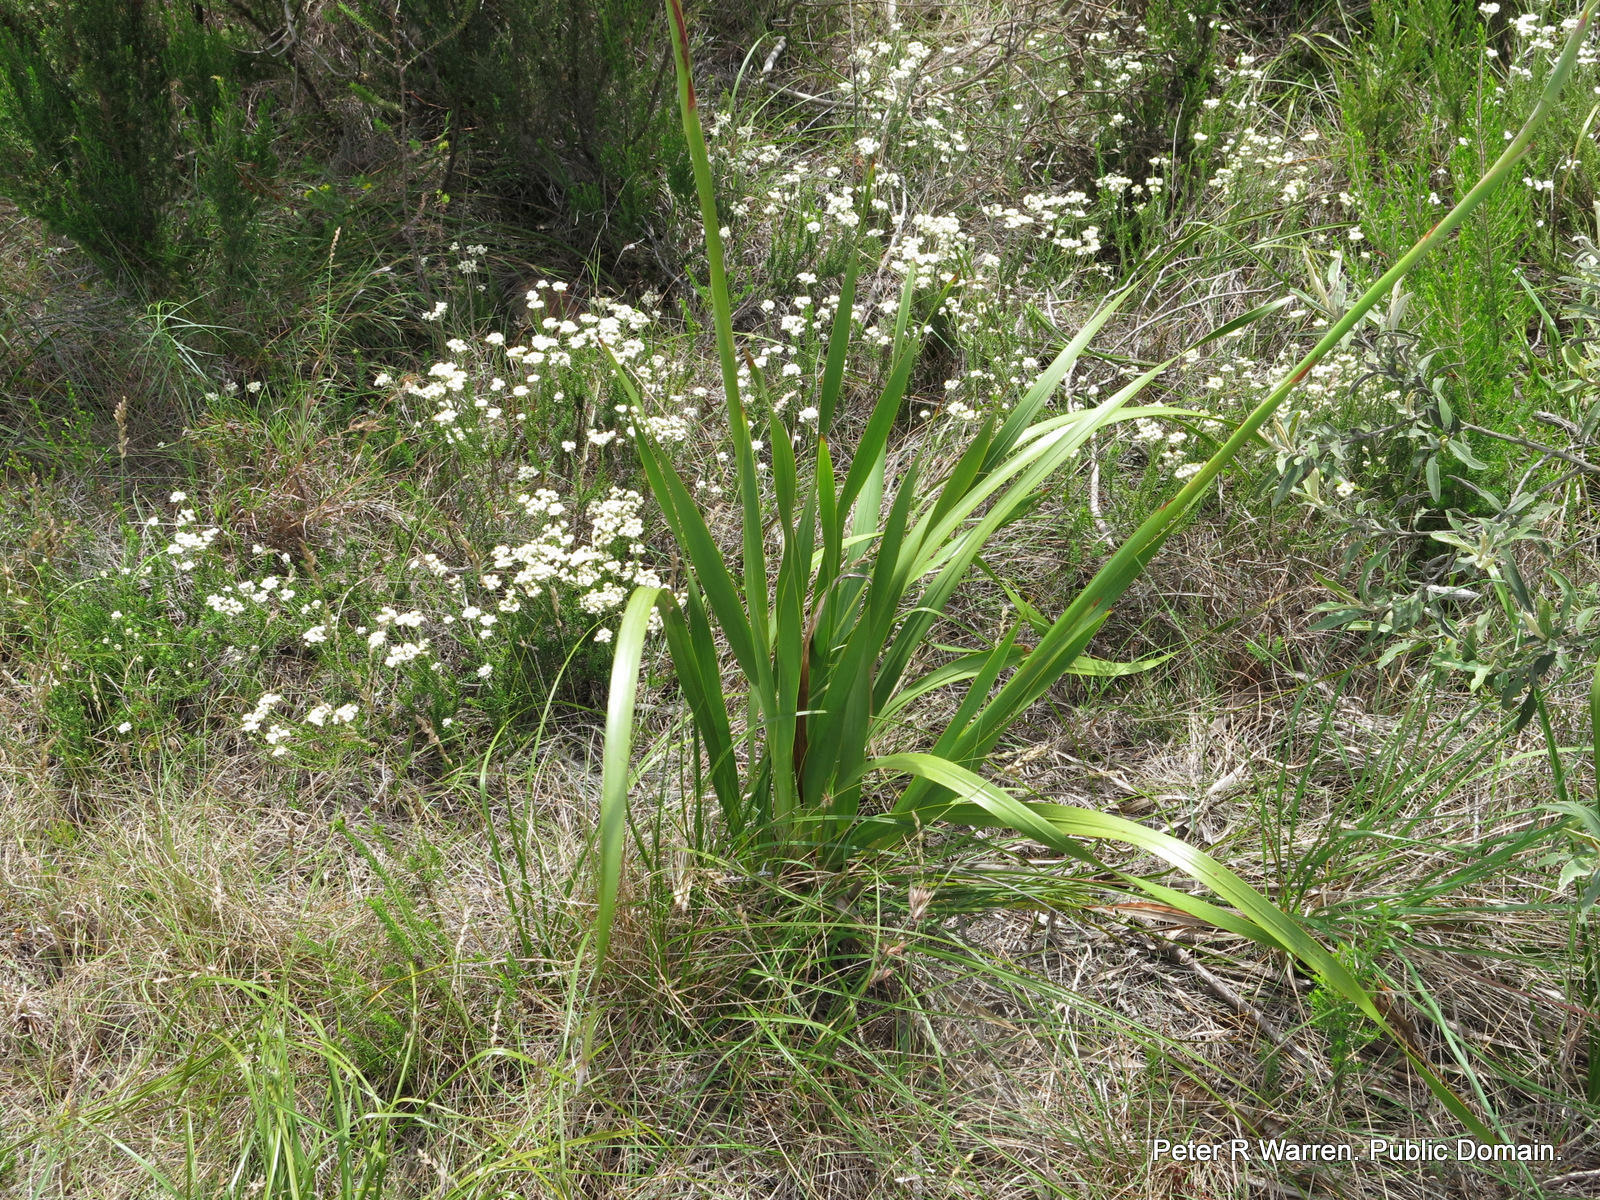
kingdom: Plantae
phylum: Tracheophyta
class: Liliopsida
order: Asparagales
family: Iridaceae
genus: Watsonia
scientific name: Watsonia knysnana
